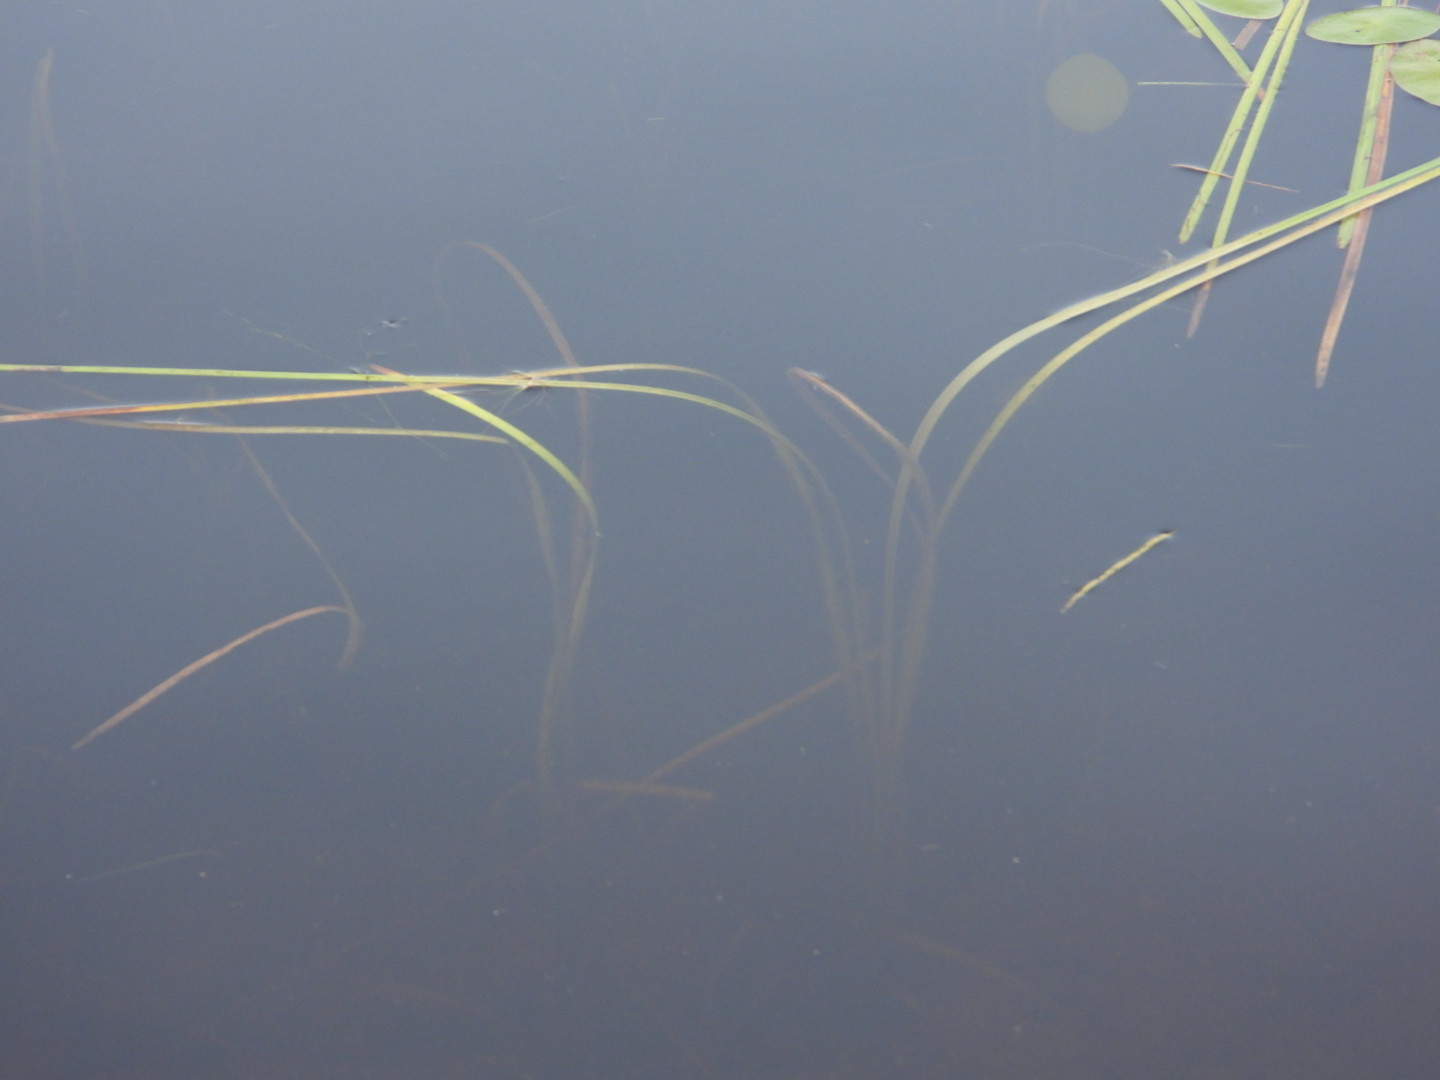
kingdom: Plantae
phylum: Tracheophyta
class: Magnoliopsida
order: Nymphaeales
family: Cabombaceae
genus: Brasenia
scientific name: Brasenia schreberi
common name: Water-shield
